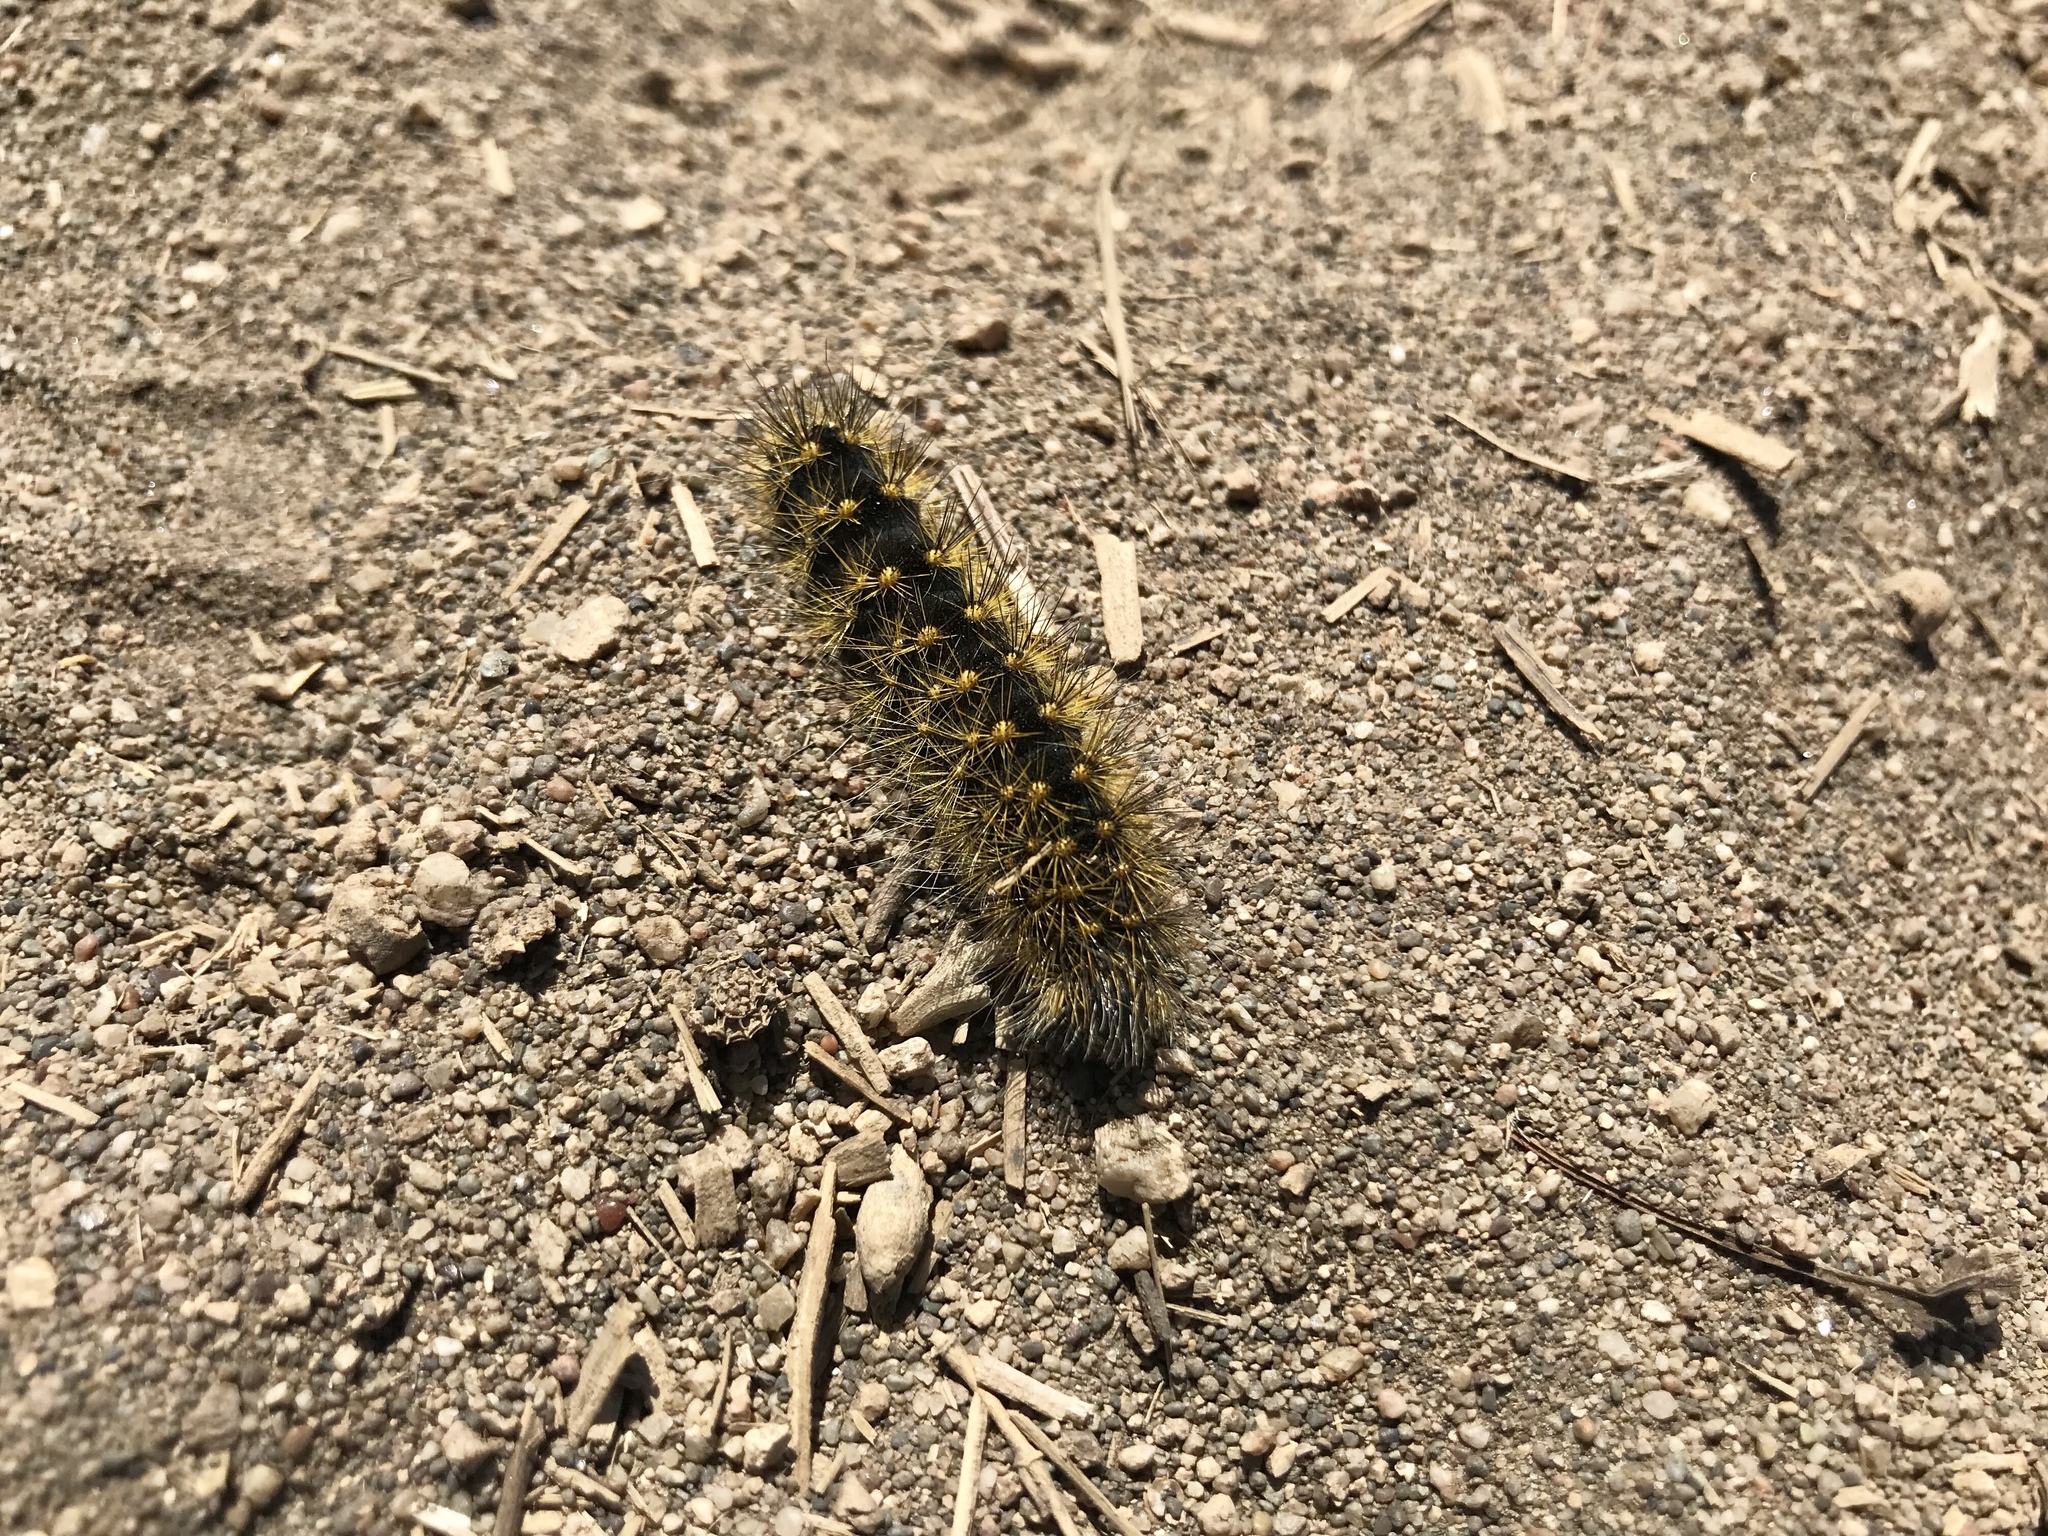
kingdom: Animalia
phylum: Arthropoda
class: Insecta
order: Lepidoptera
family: Noctuidae
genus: Acronicta
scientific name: Acronicta spinea
